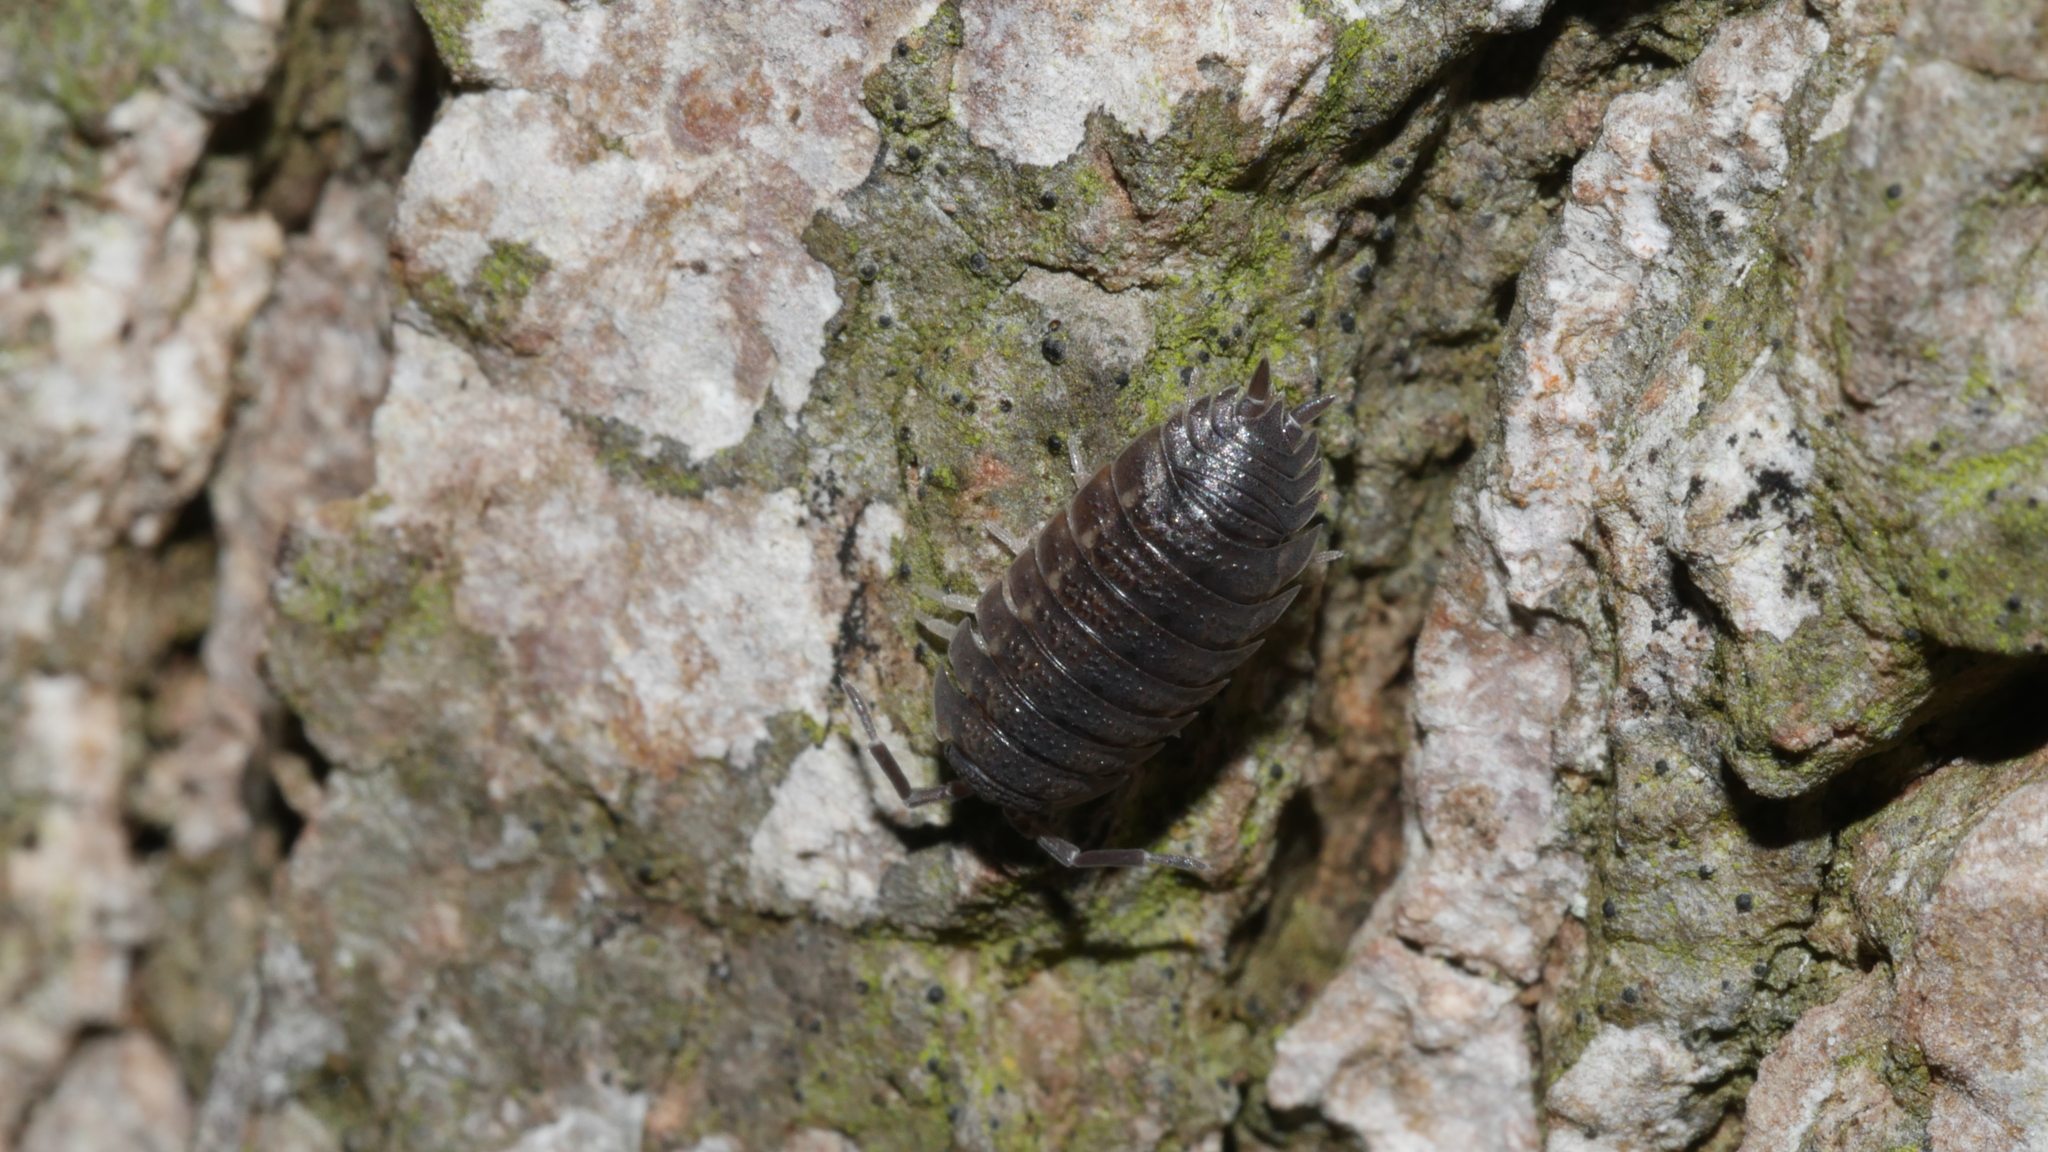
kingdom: Animalia
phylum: Arthropoda
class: Malacostraca
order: Isopoda
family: Porcellionidae
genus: Porcellio
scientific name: Porcellio scaber
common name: Common rough woodlouse
